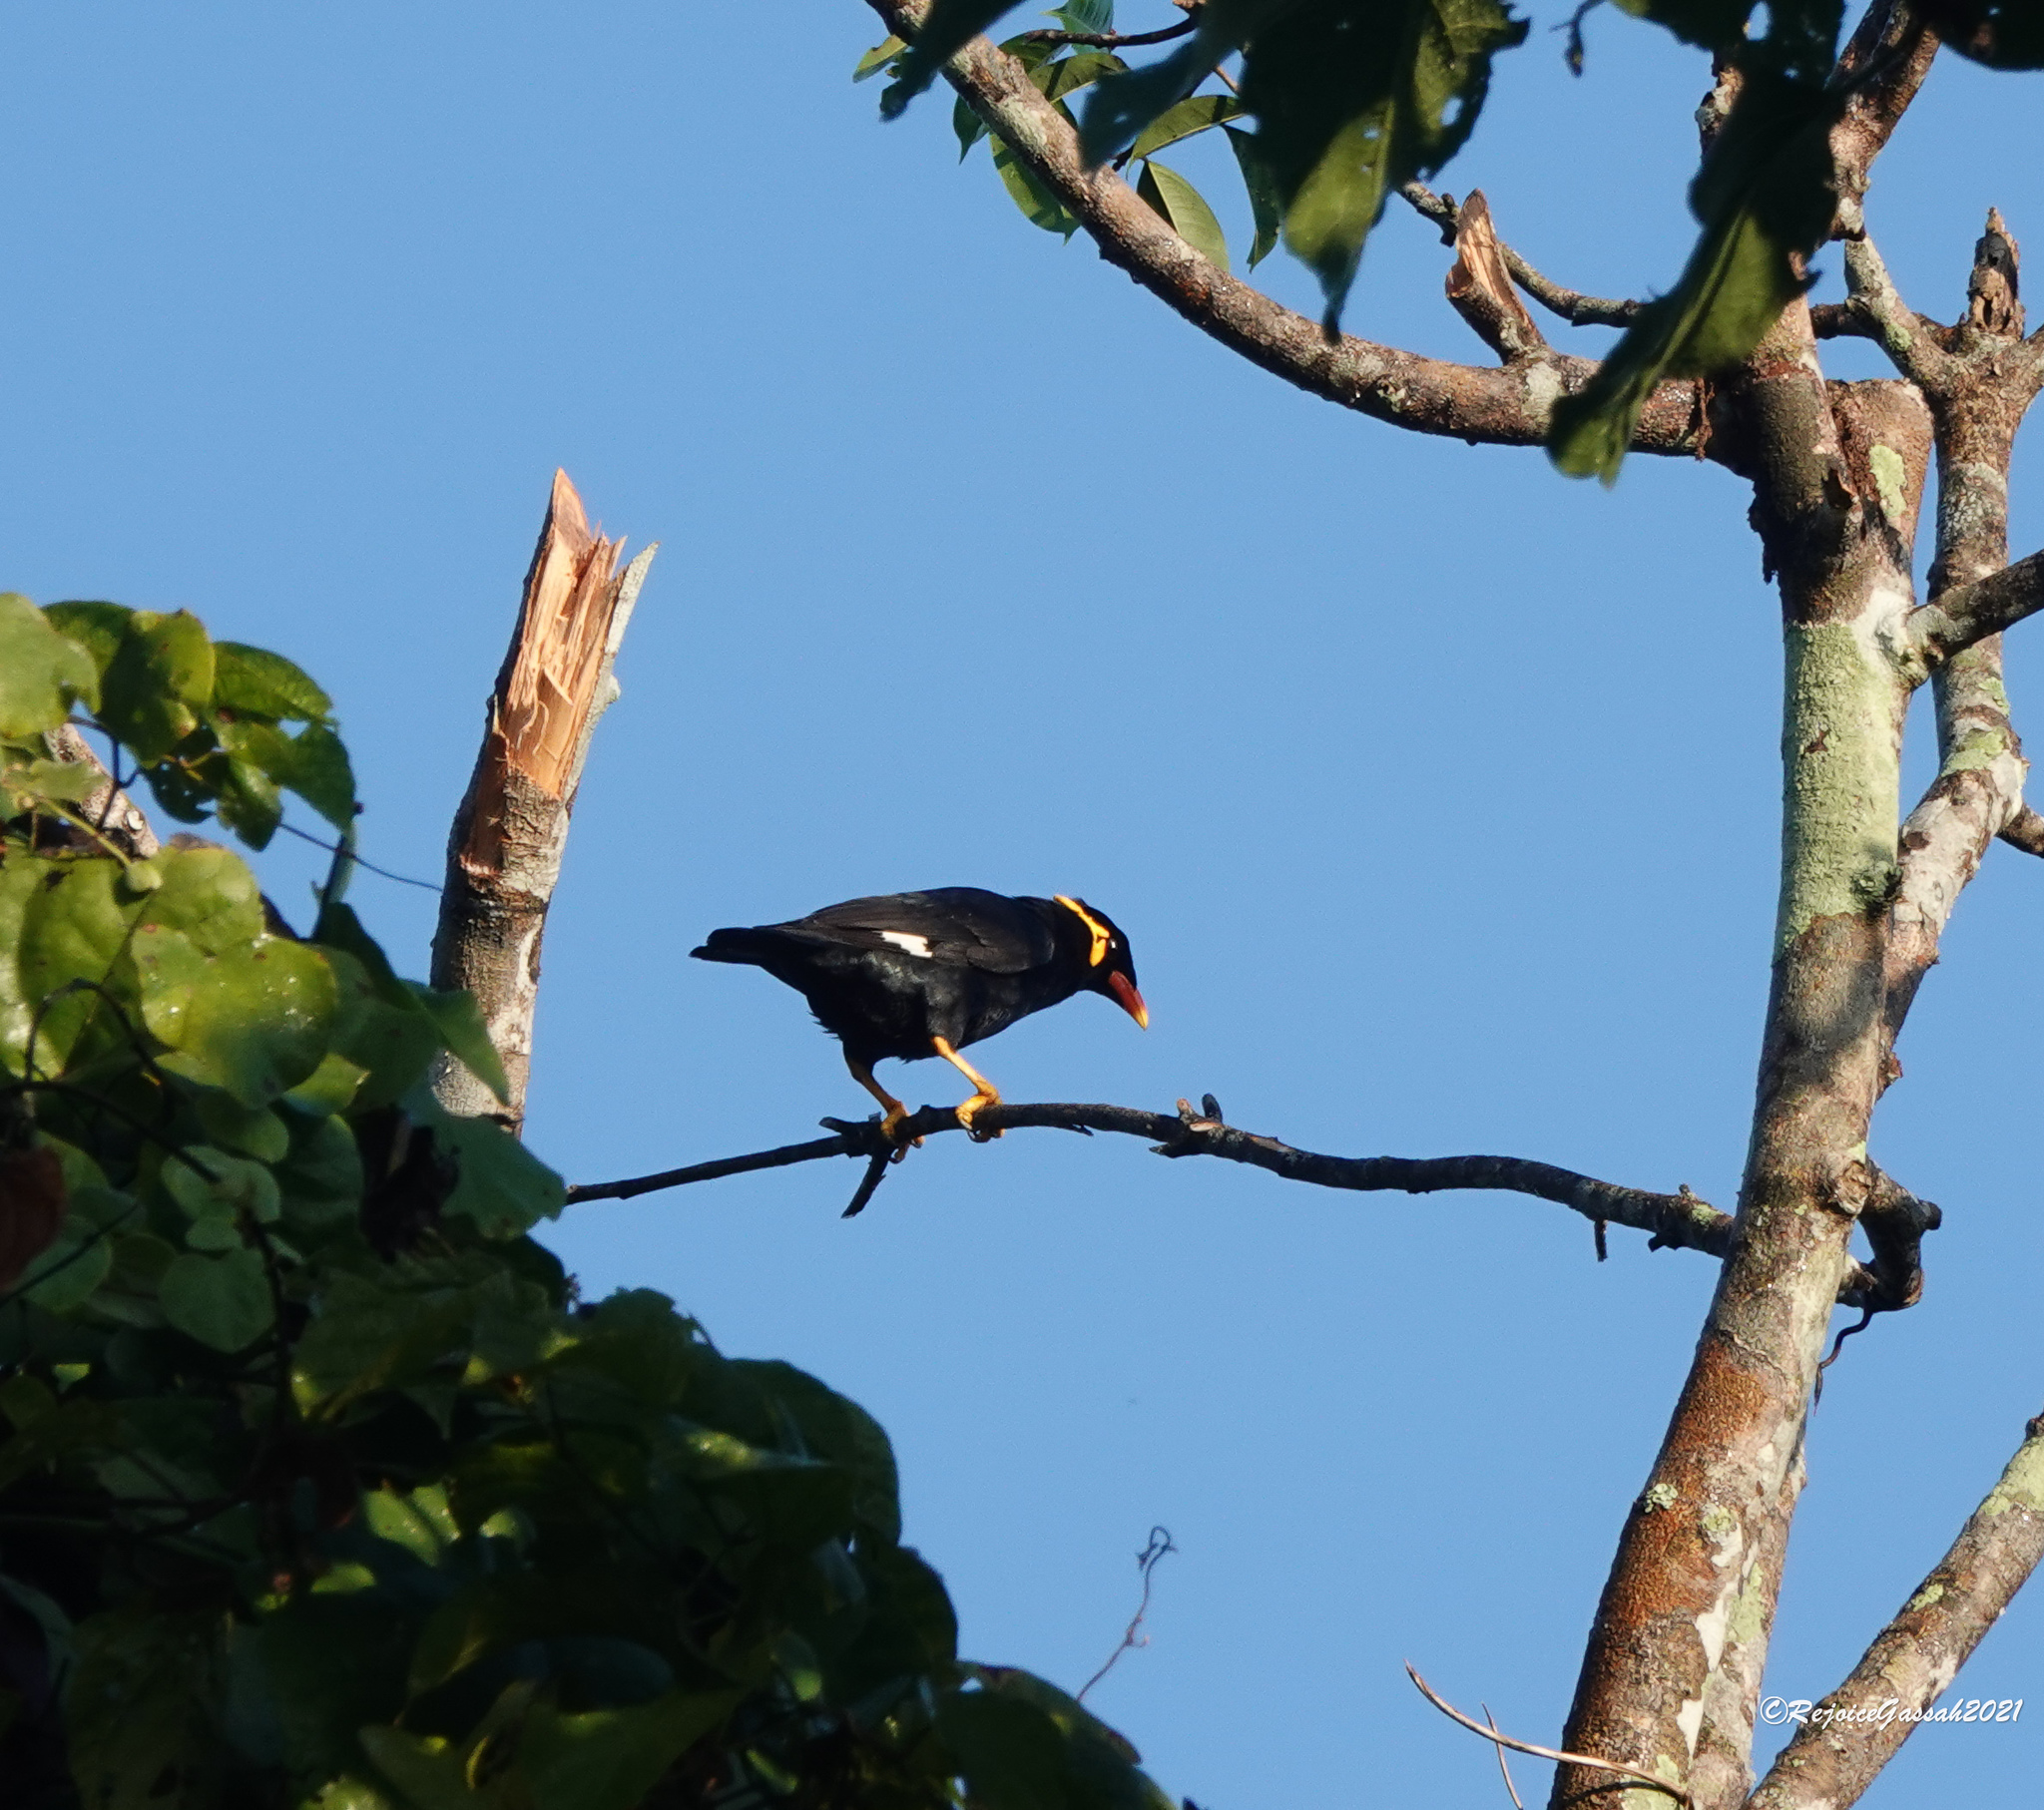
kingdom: Animalia
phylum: Chordata
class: Aves
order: Passeriformes
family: Sturnidae
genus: Gracula
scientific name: Gracula religiosa
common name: Common hill myna
